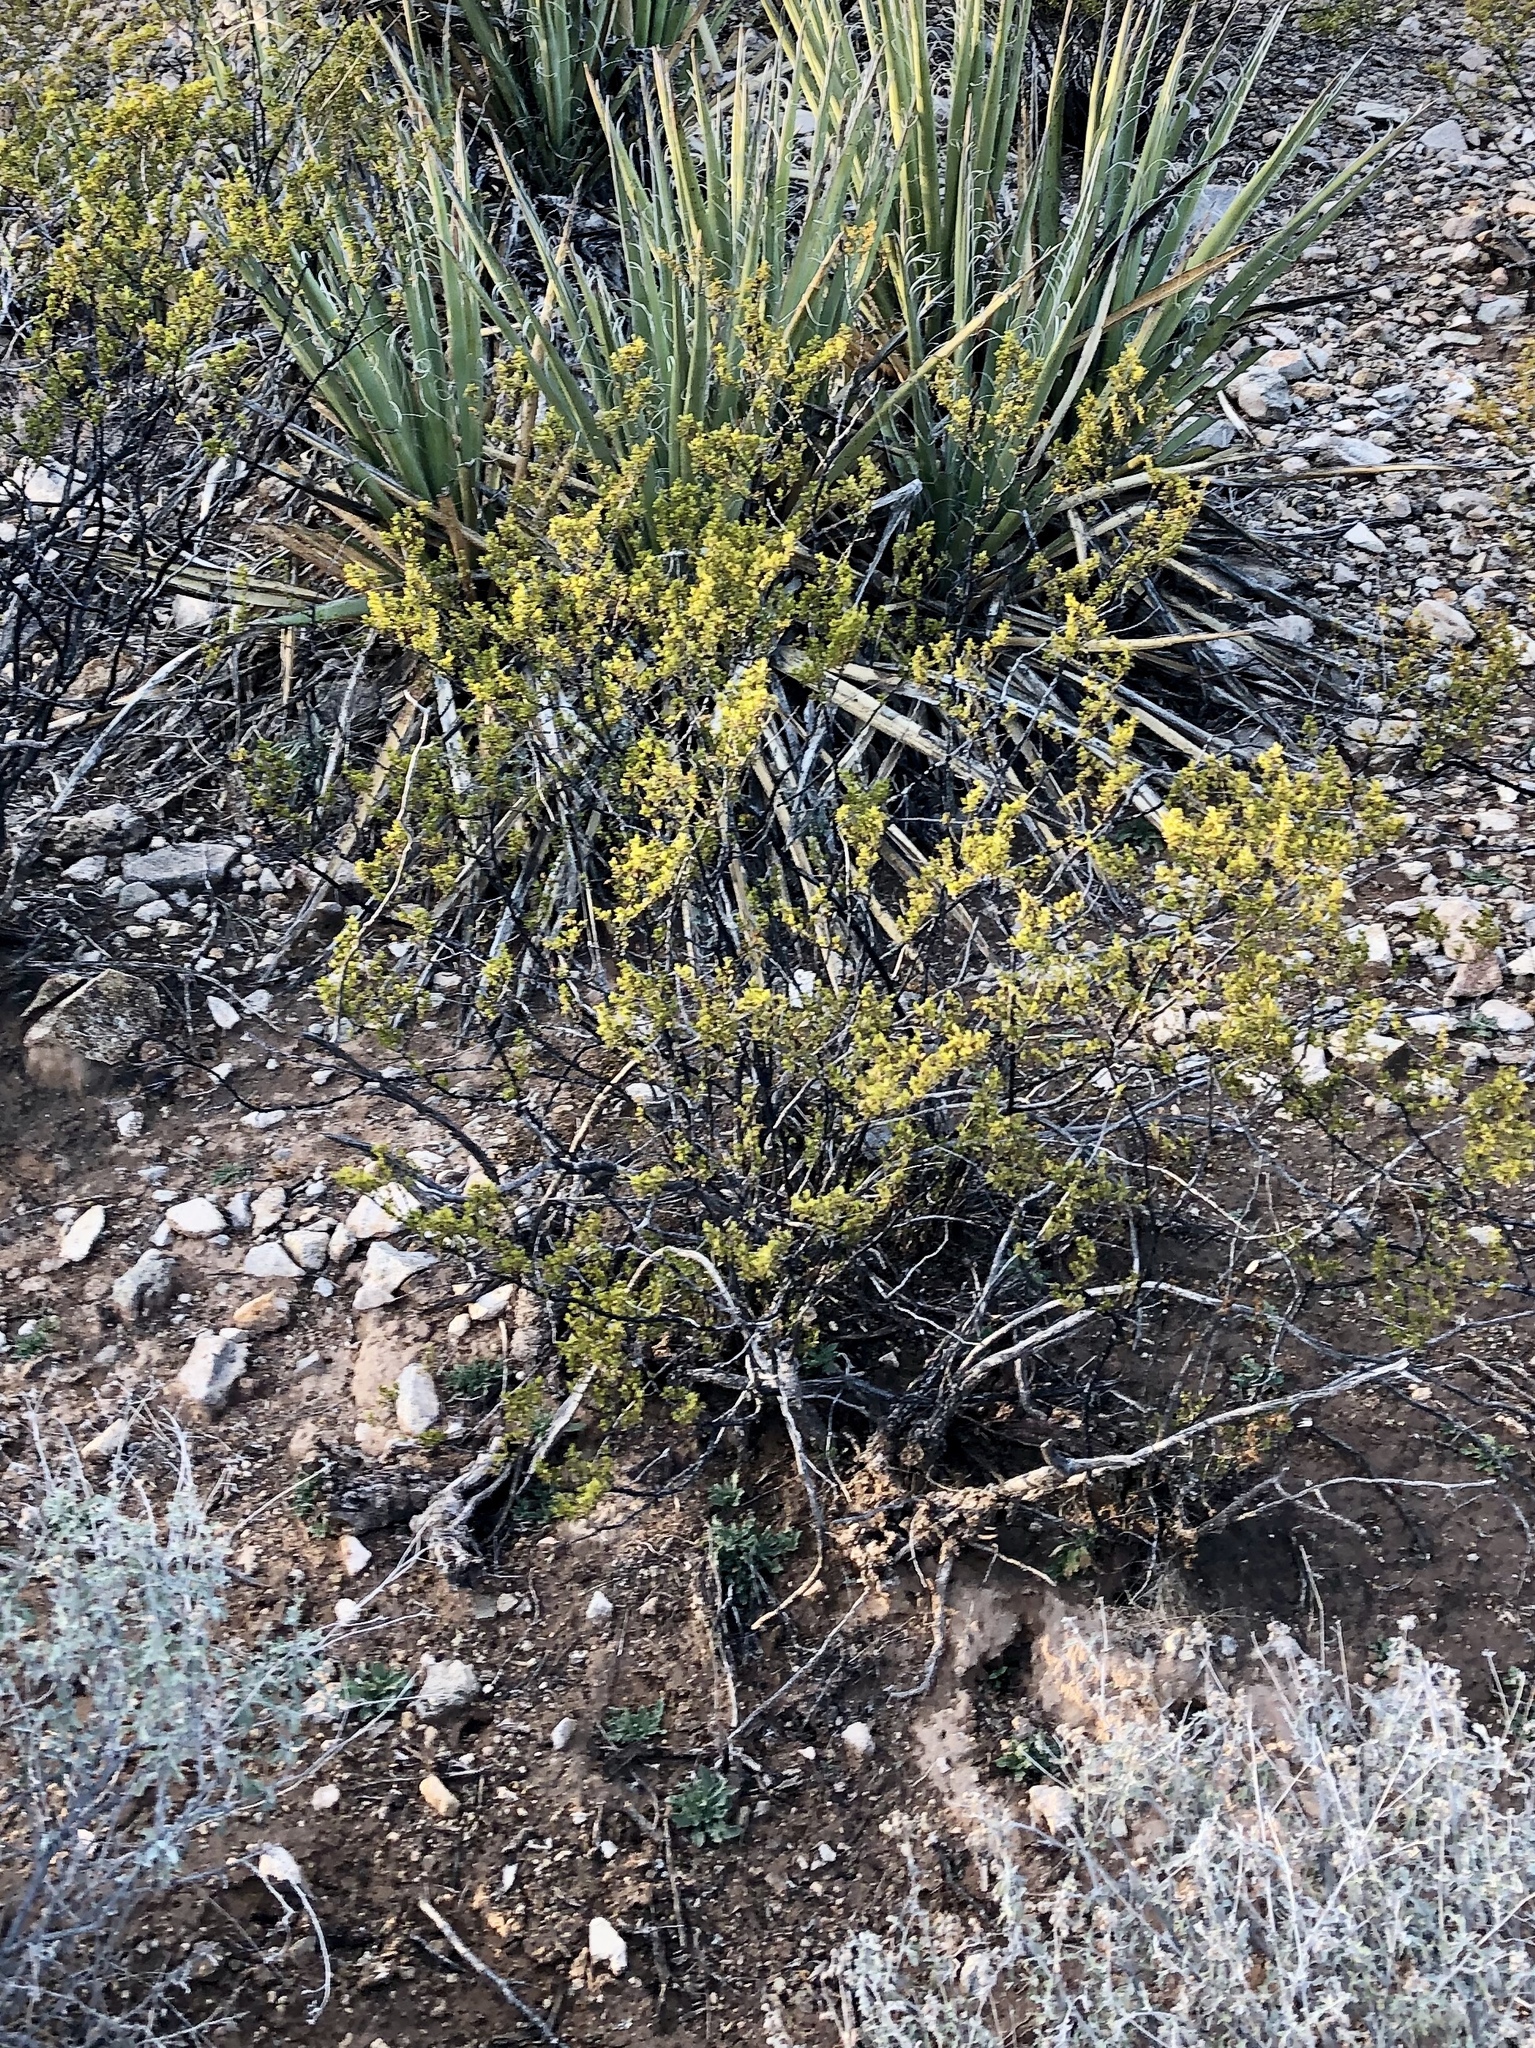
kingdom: Plantae
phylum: Tracheophyta
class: Magnoliopsida
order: Zygophyllales
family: Zygophyllaceae
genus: Larrea
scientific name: Larrea tridentata
